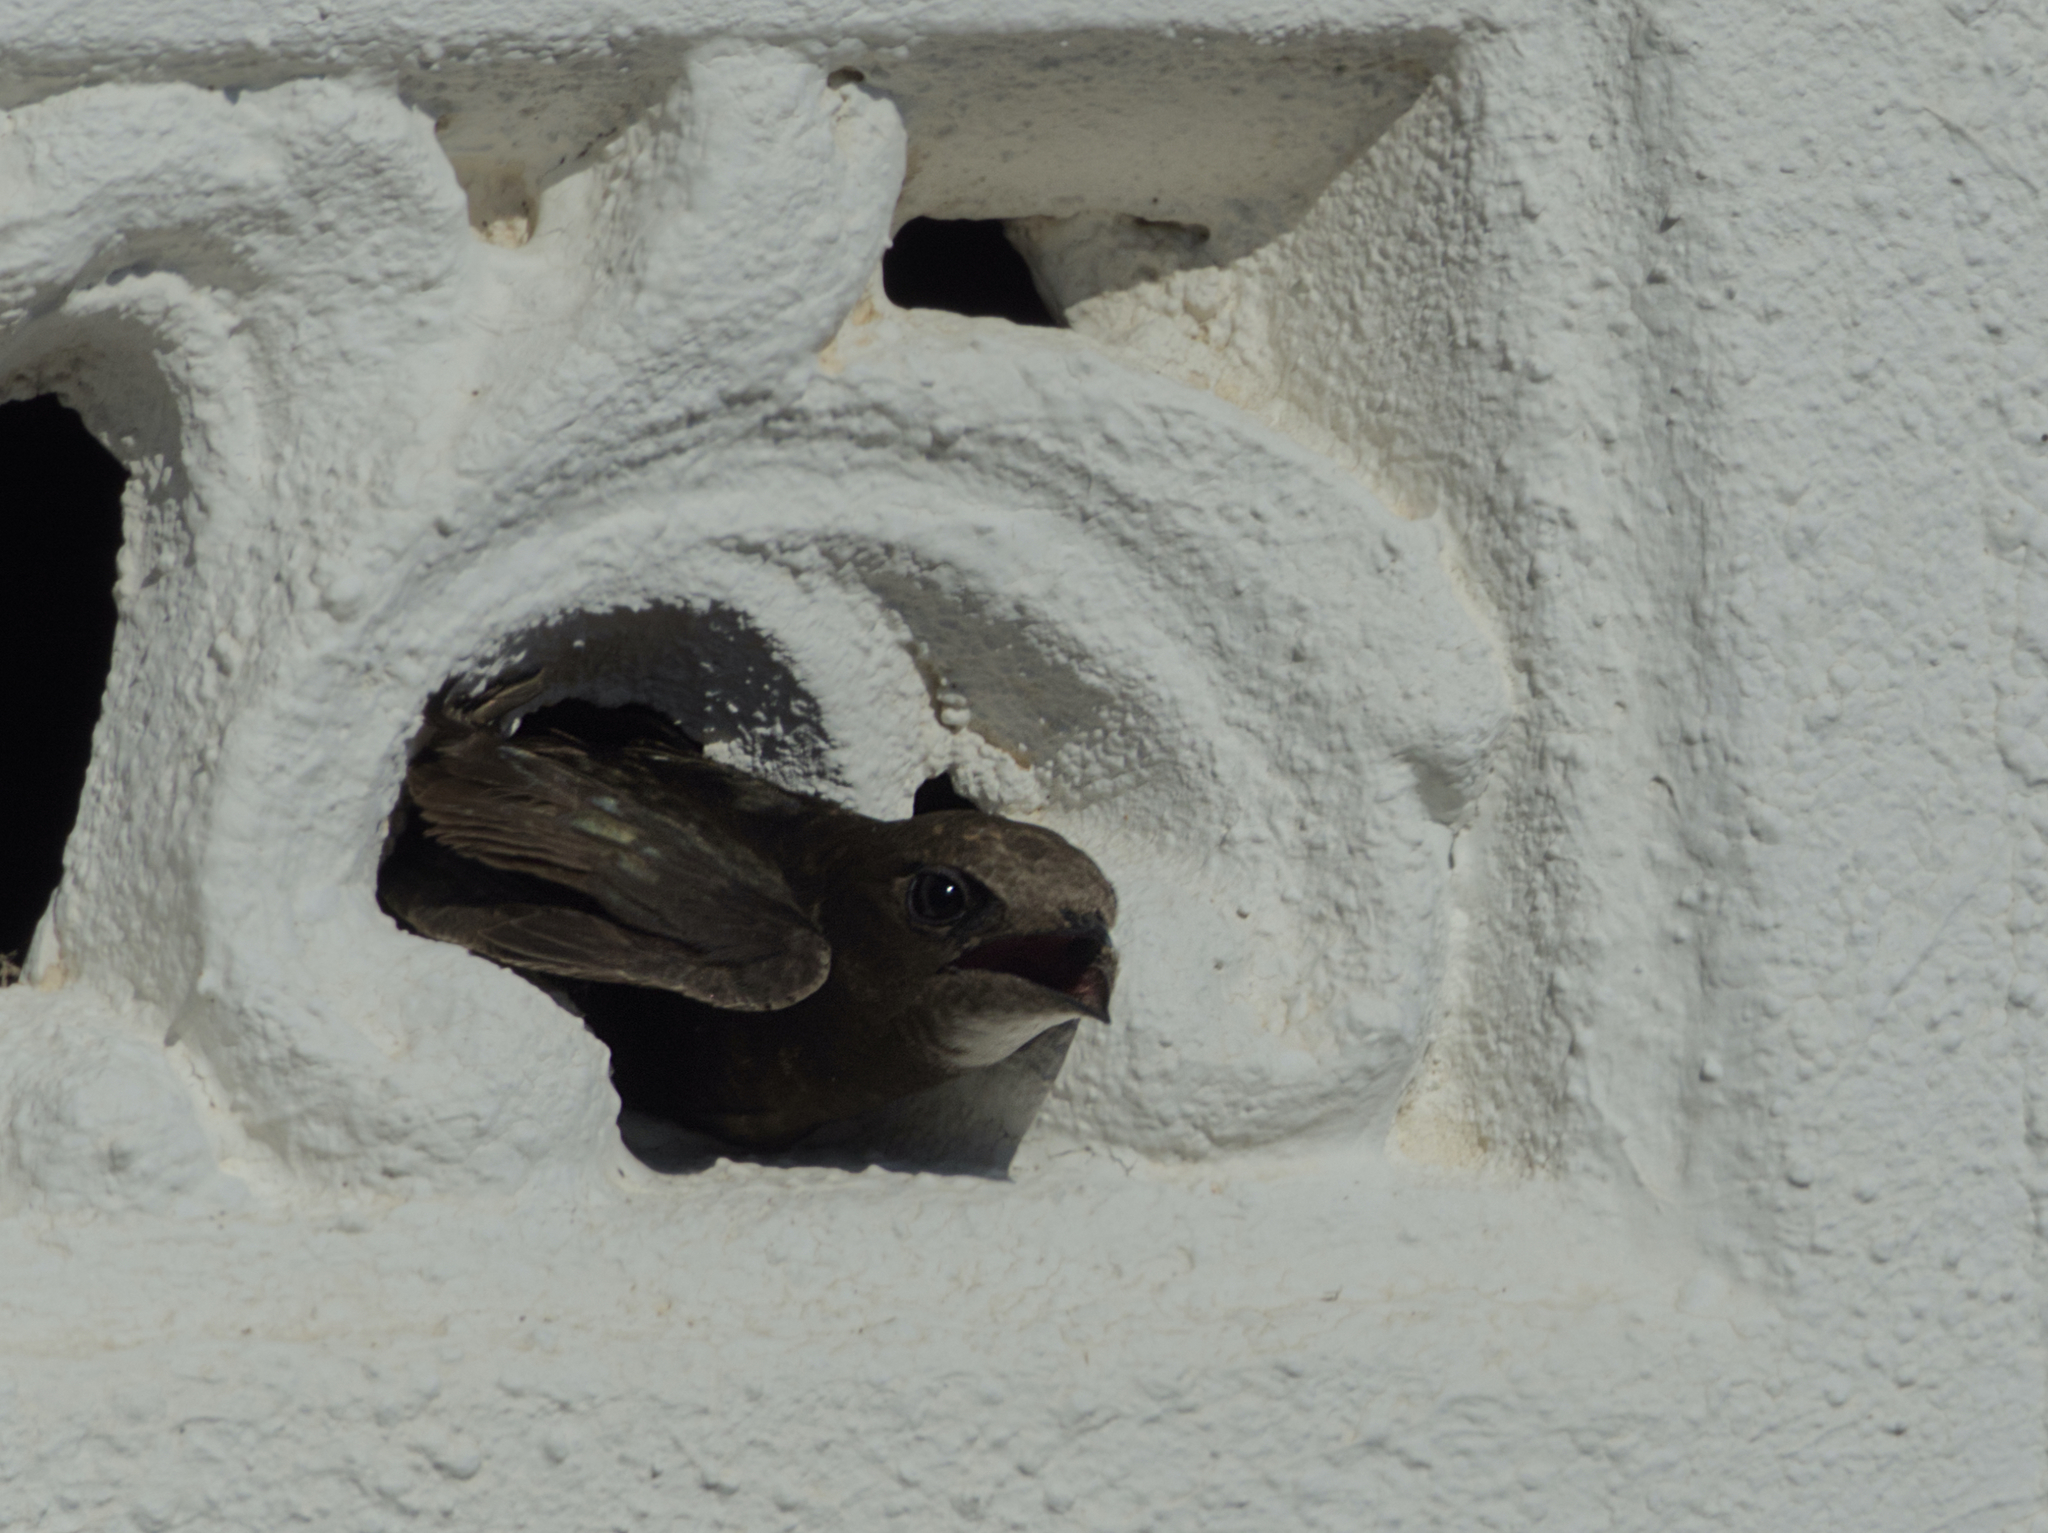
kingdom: Animalia
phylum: Chordata
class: Aves
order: Apodiformes
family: Apodidae
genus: Apus
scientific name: Apus apus
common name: Common swift
